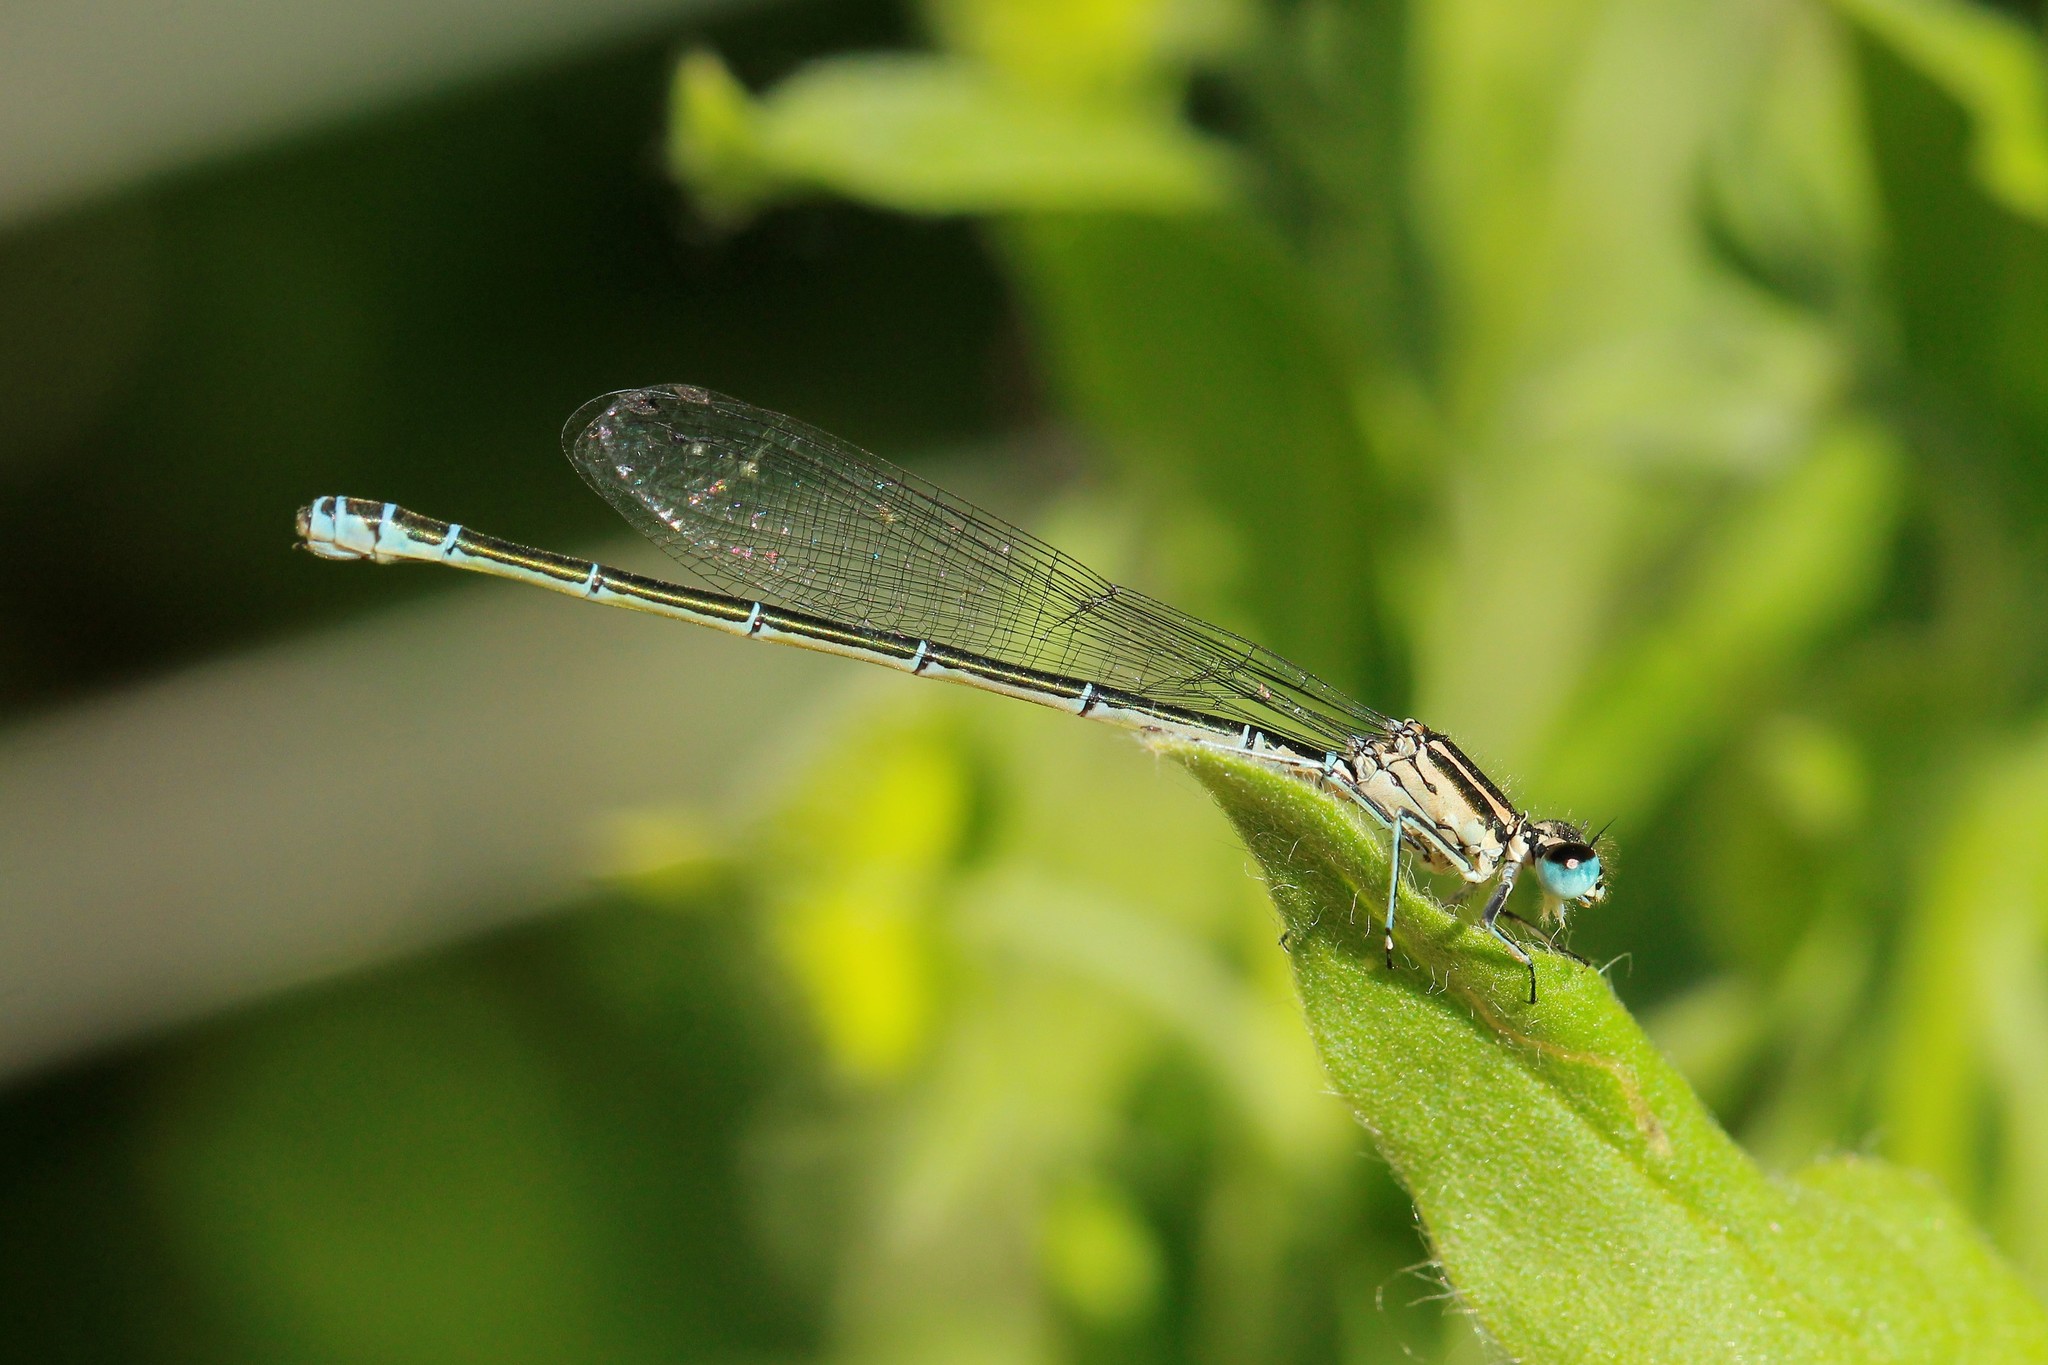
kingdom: Animalia
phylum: Arthropoda
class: Insecta
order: Odonata
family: Coenagrionidae
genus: Coenagrion
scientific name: Coenagrion puella
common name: Azure damselfly
